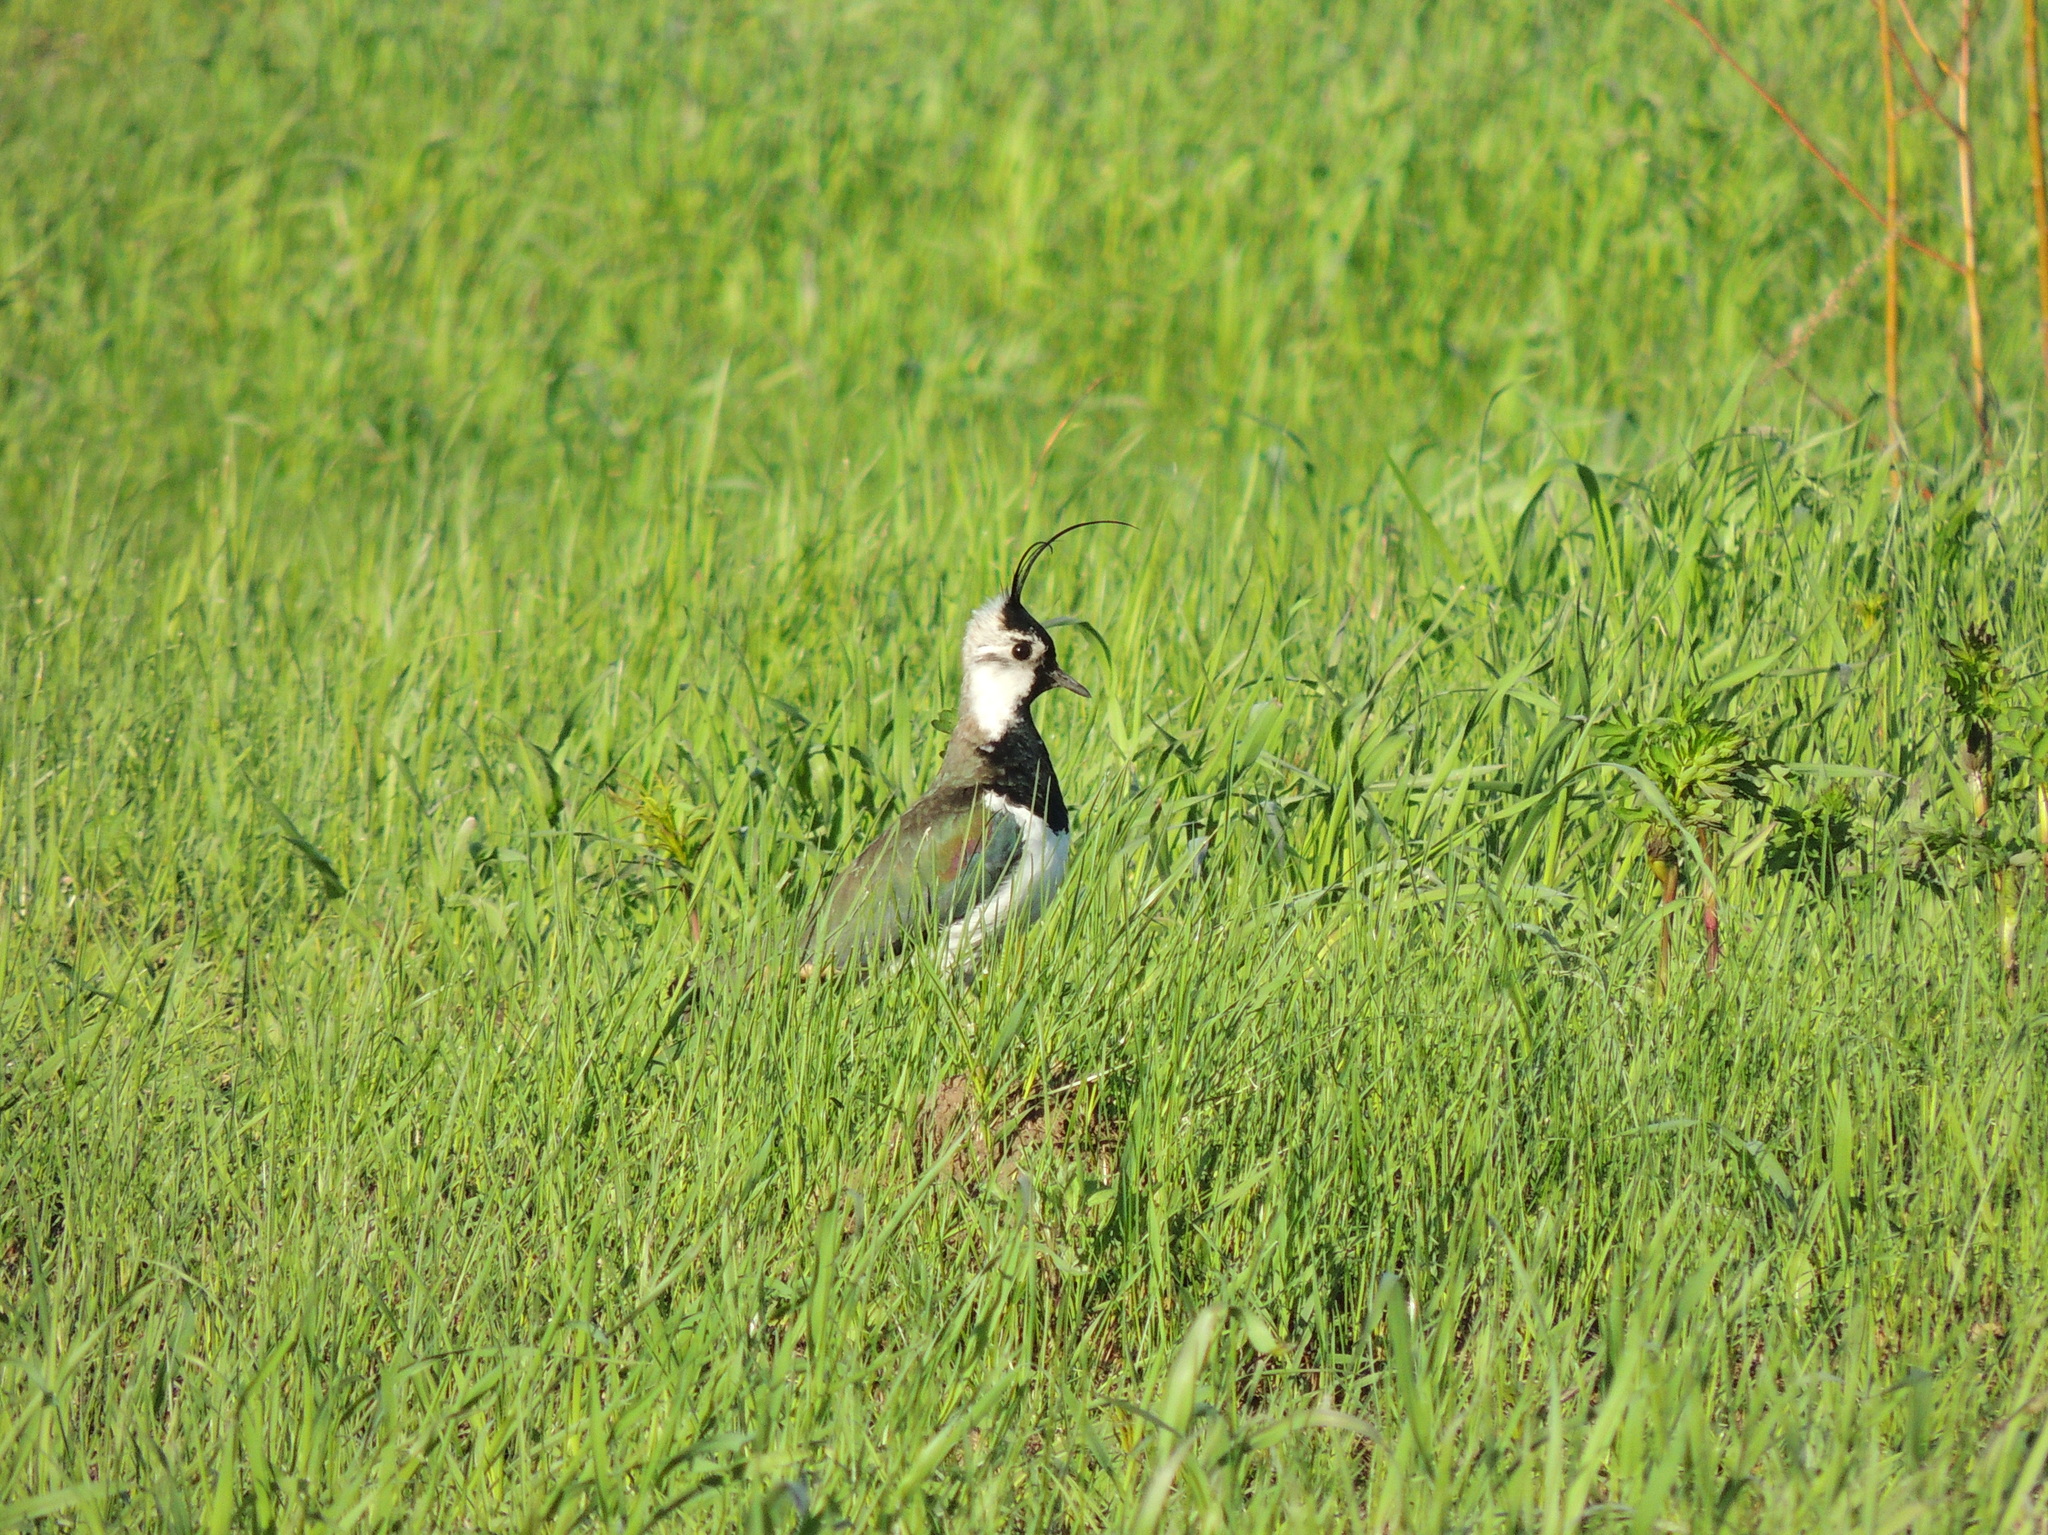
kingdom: Animalia
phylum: Chordata
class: Aves
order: Charadriiformes
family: Charadriidae
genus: Vanellus
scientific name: Vanellus vanellus
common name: Northern lapwing
